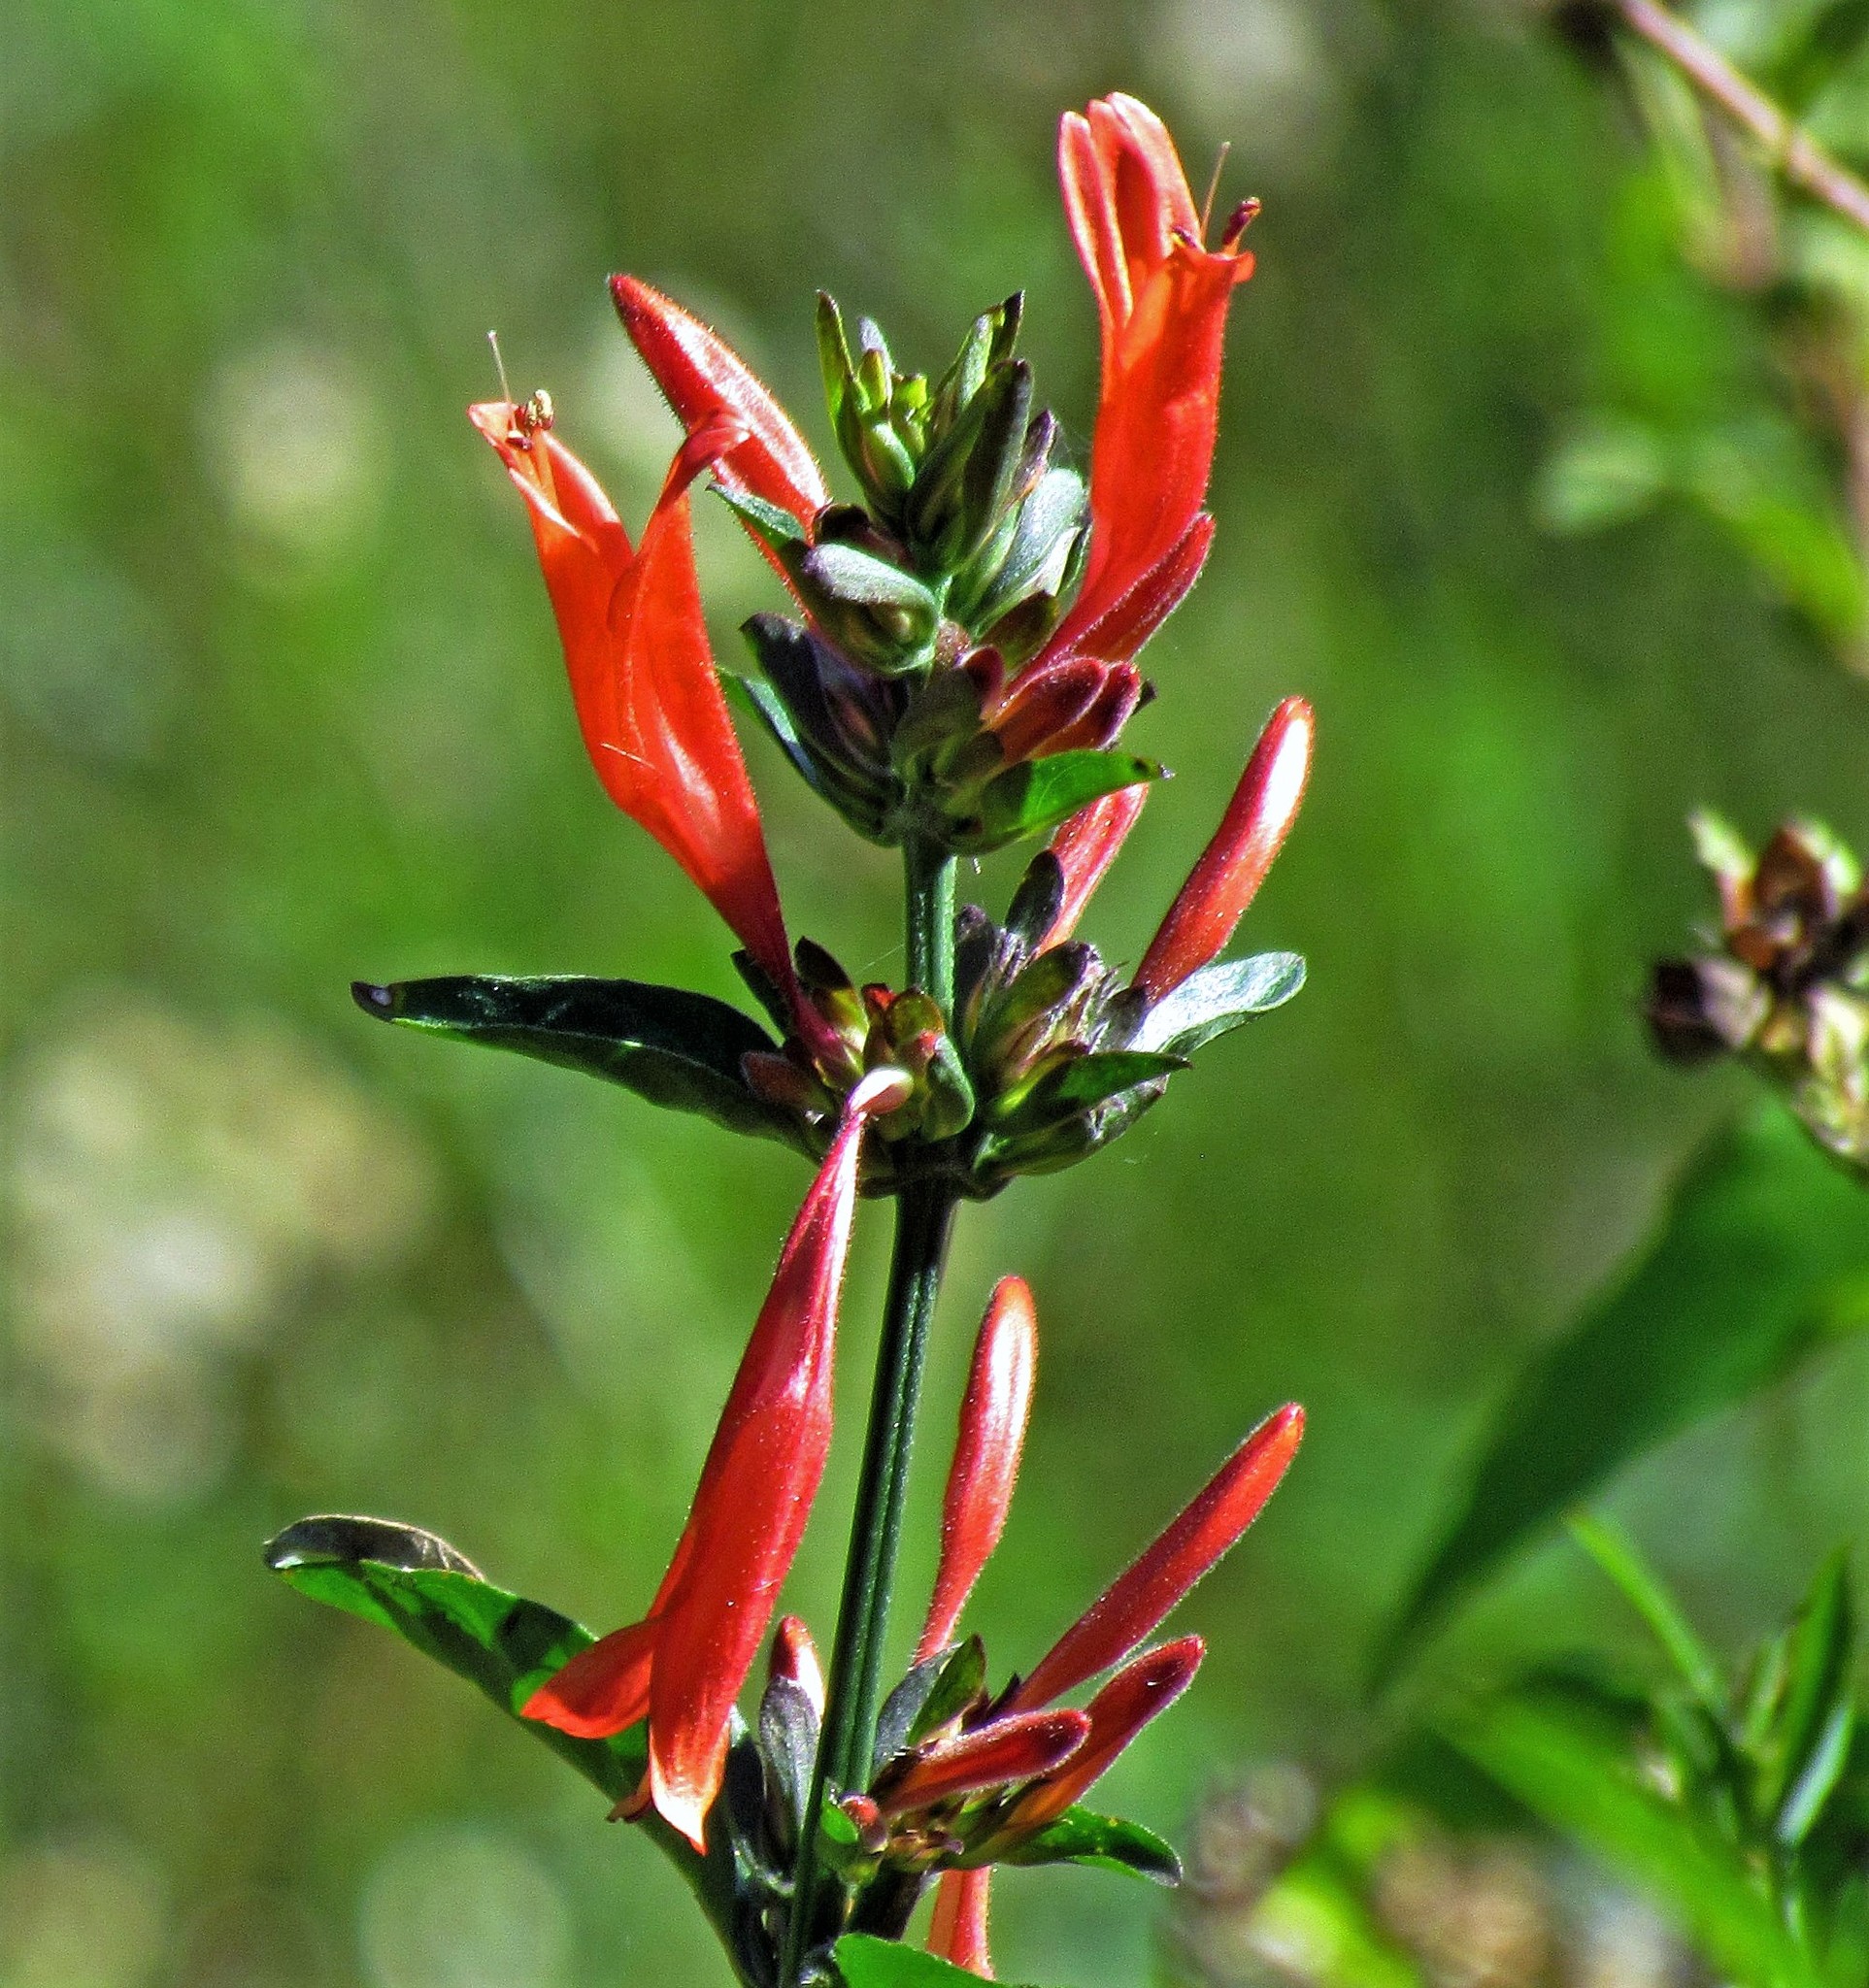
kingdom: Plantae
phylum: Tracheophyta
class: Magnoliopsida
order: Lamiales
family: Acanthaceae
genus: Dicliptera
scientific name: Dicliptera squarrosa
